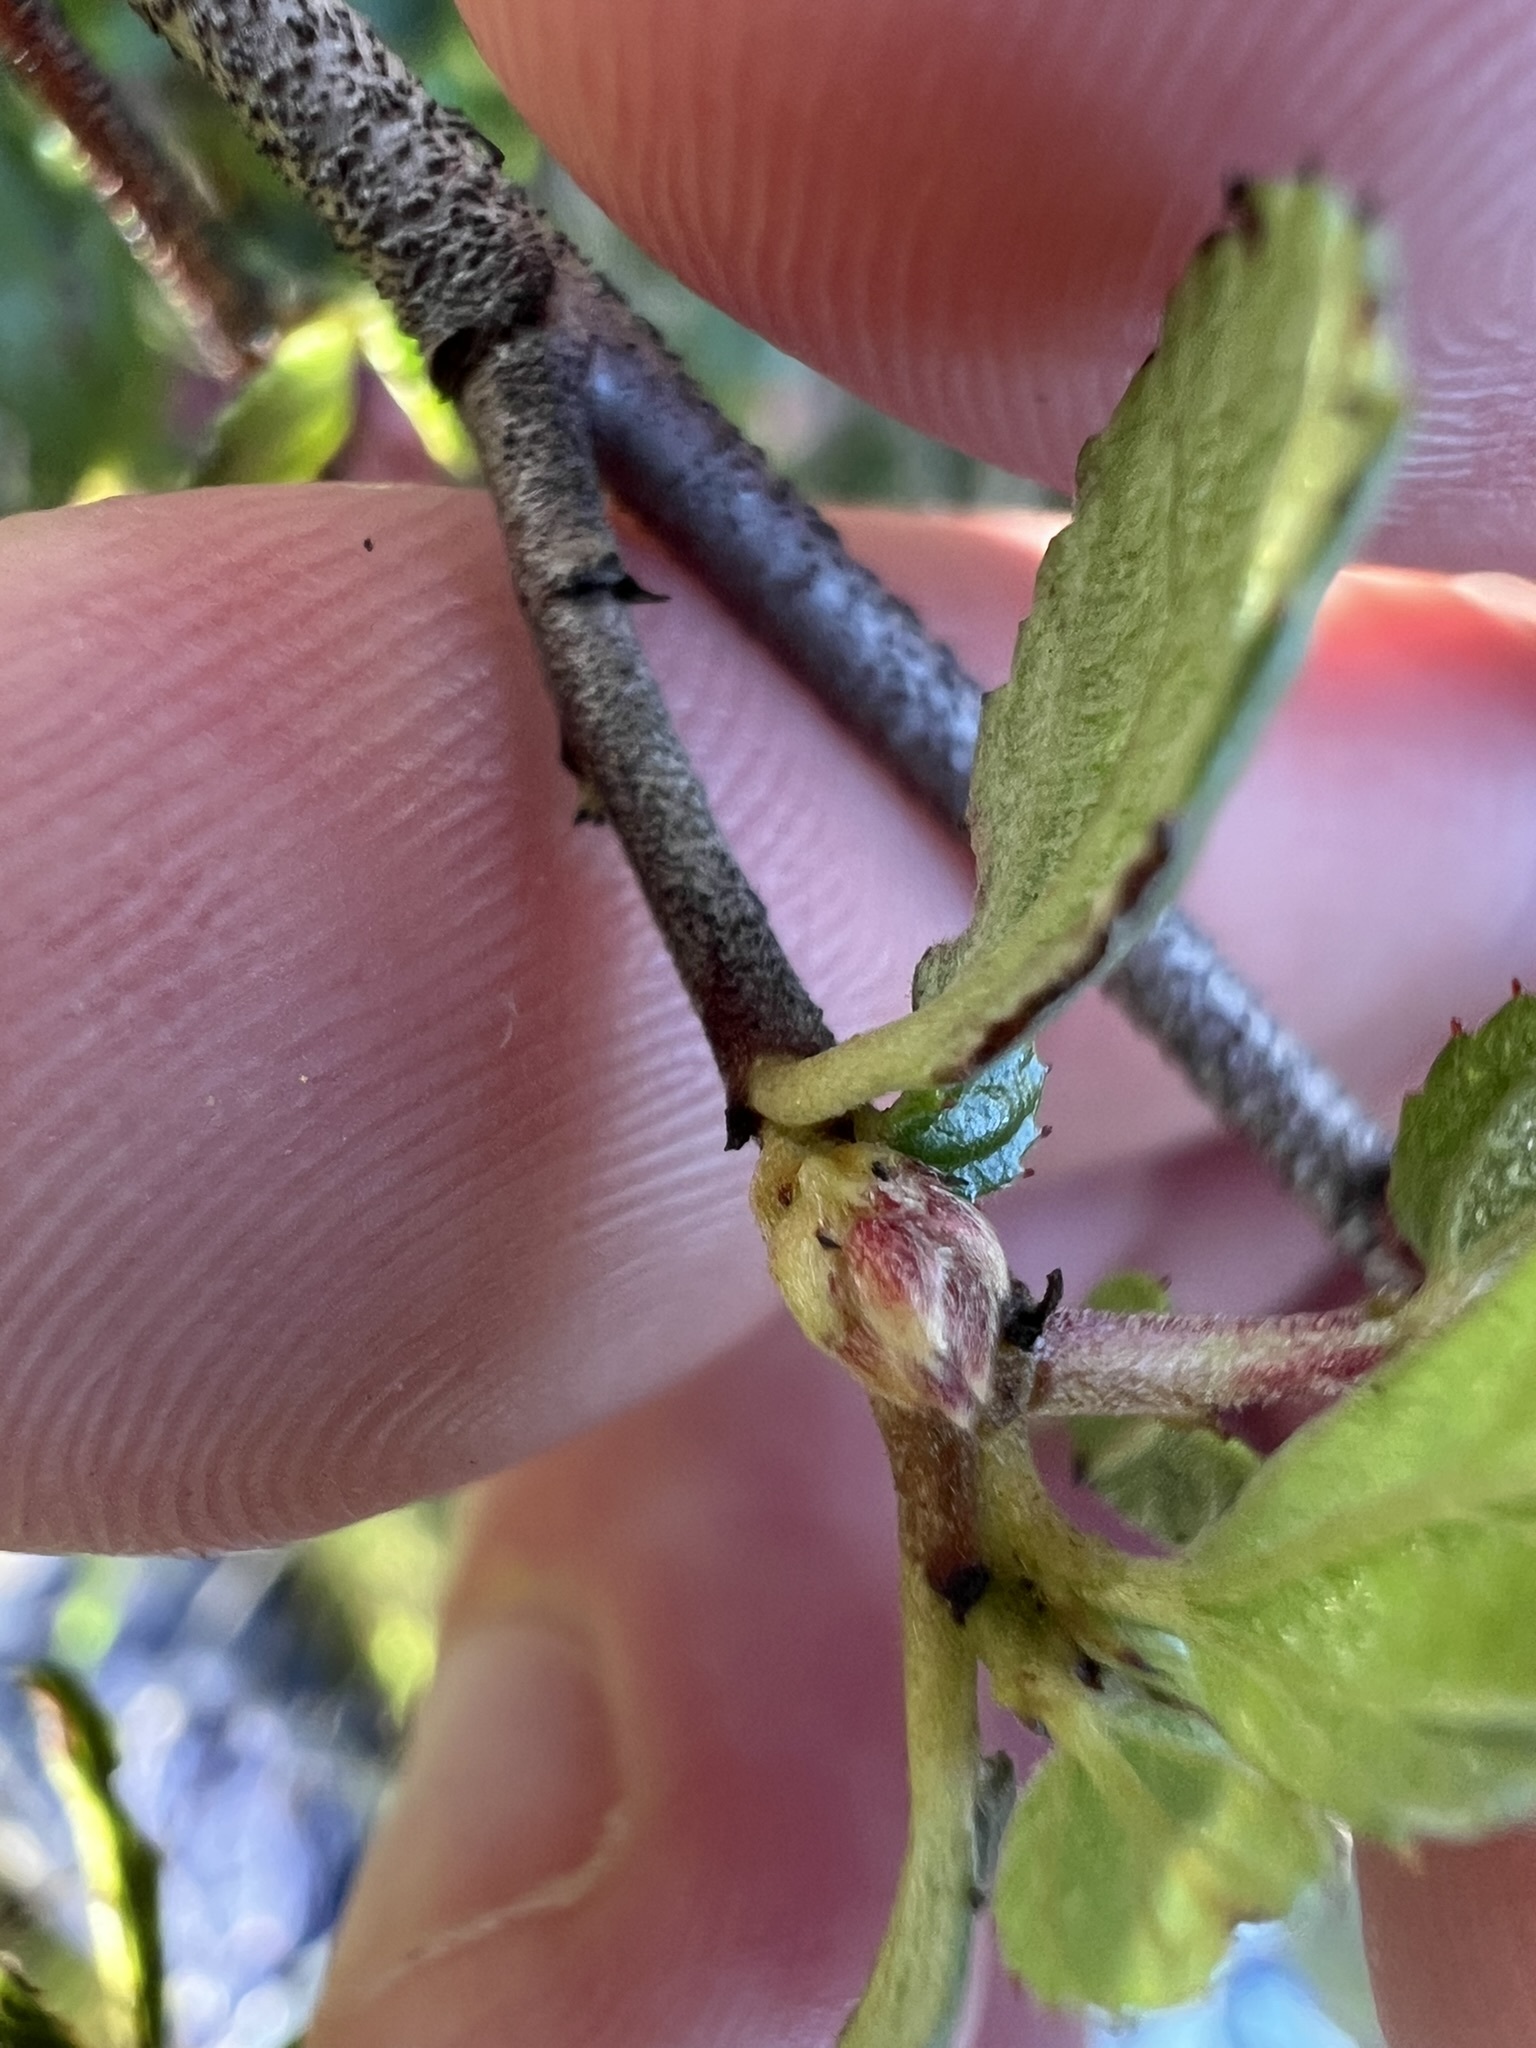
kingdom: Plantae
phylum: Tracheophyta
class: Magnoliopsida
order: Rosales
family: Rhamnaceae
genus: Ceanothus
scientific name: Ceanothus tomentosus
